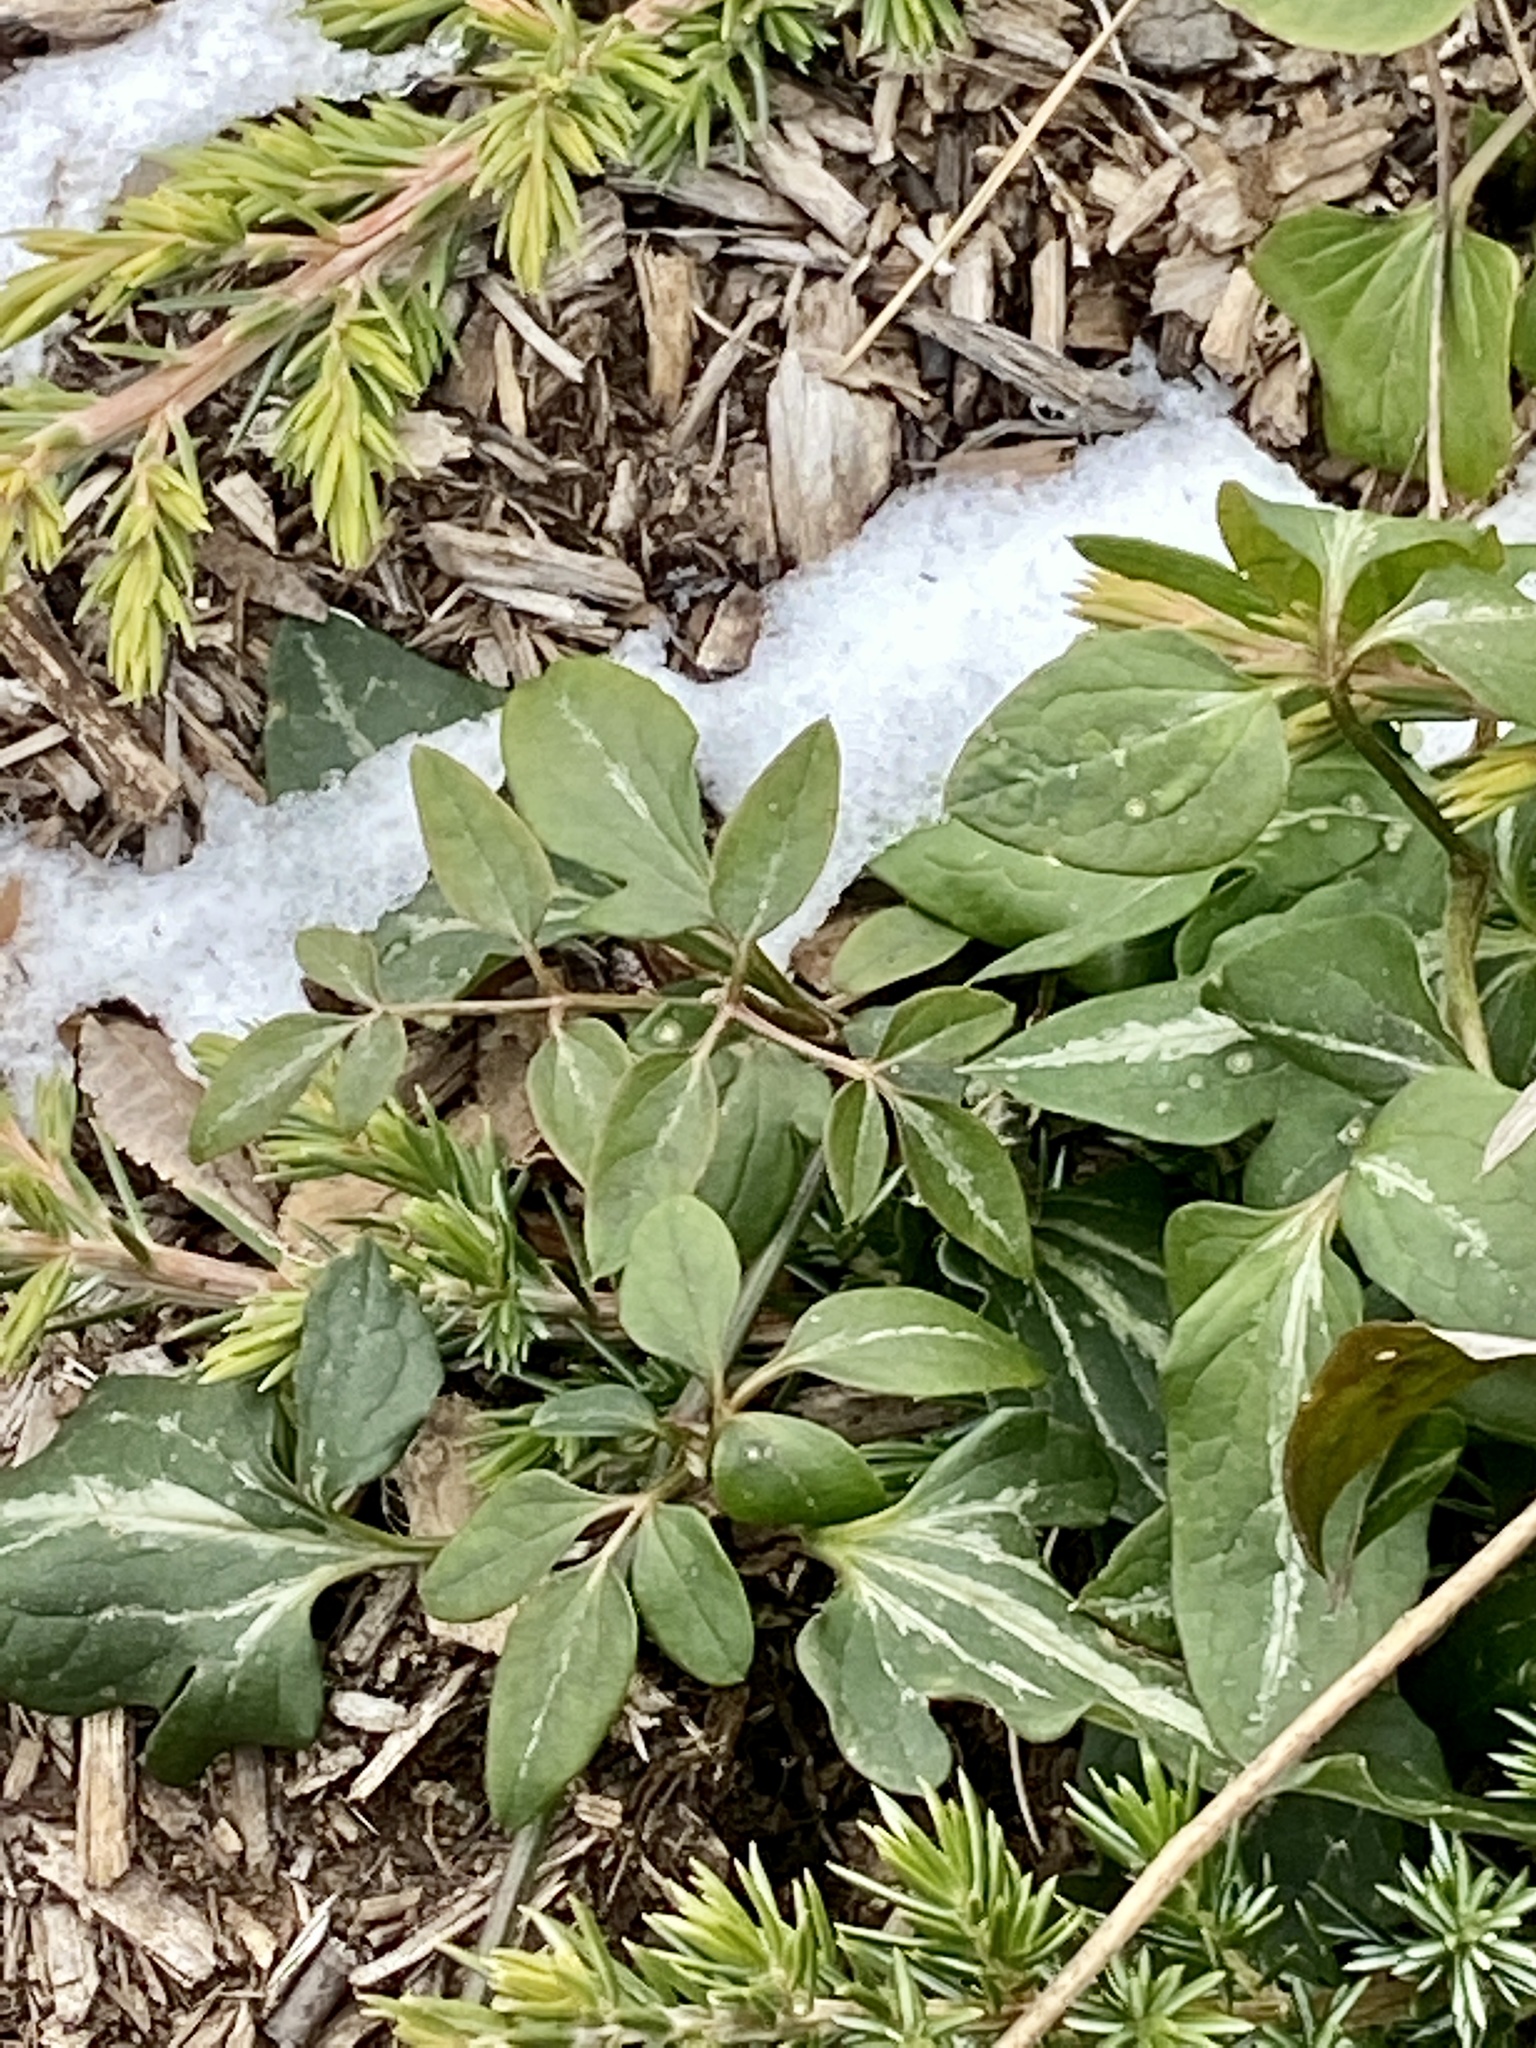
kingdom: Plantae
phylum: Tracheophyta
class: Magnoliopsida
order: Ranunculales
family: Ranunculaceae
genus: Clematis
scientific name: Clematis terniflora
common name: Sweet autumn clematis
